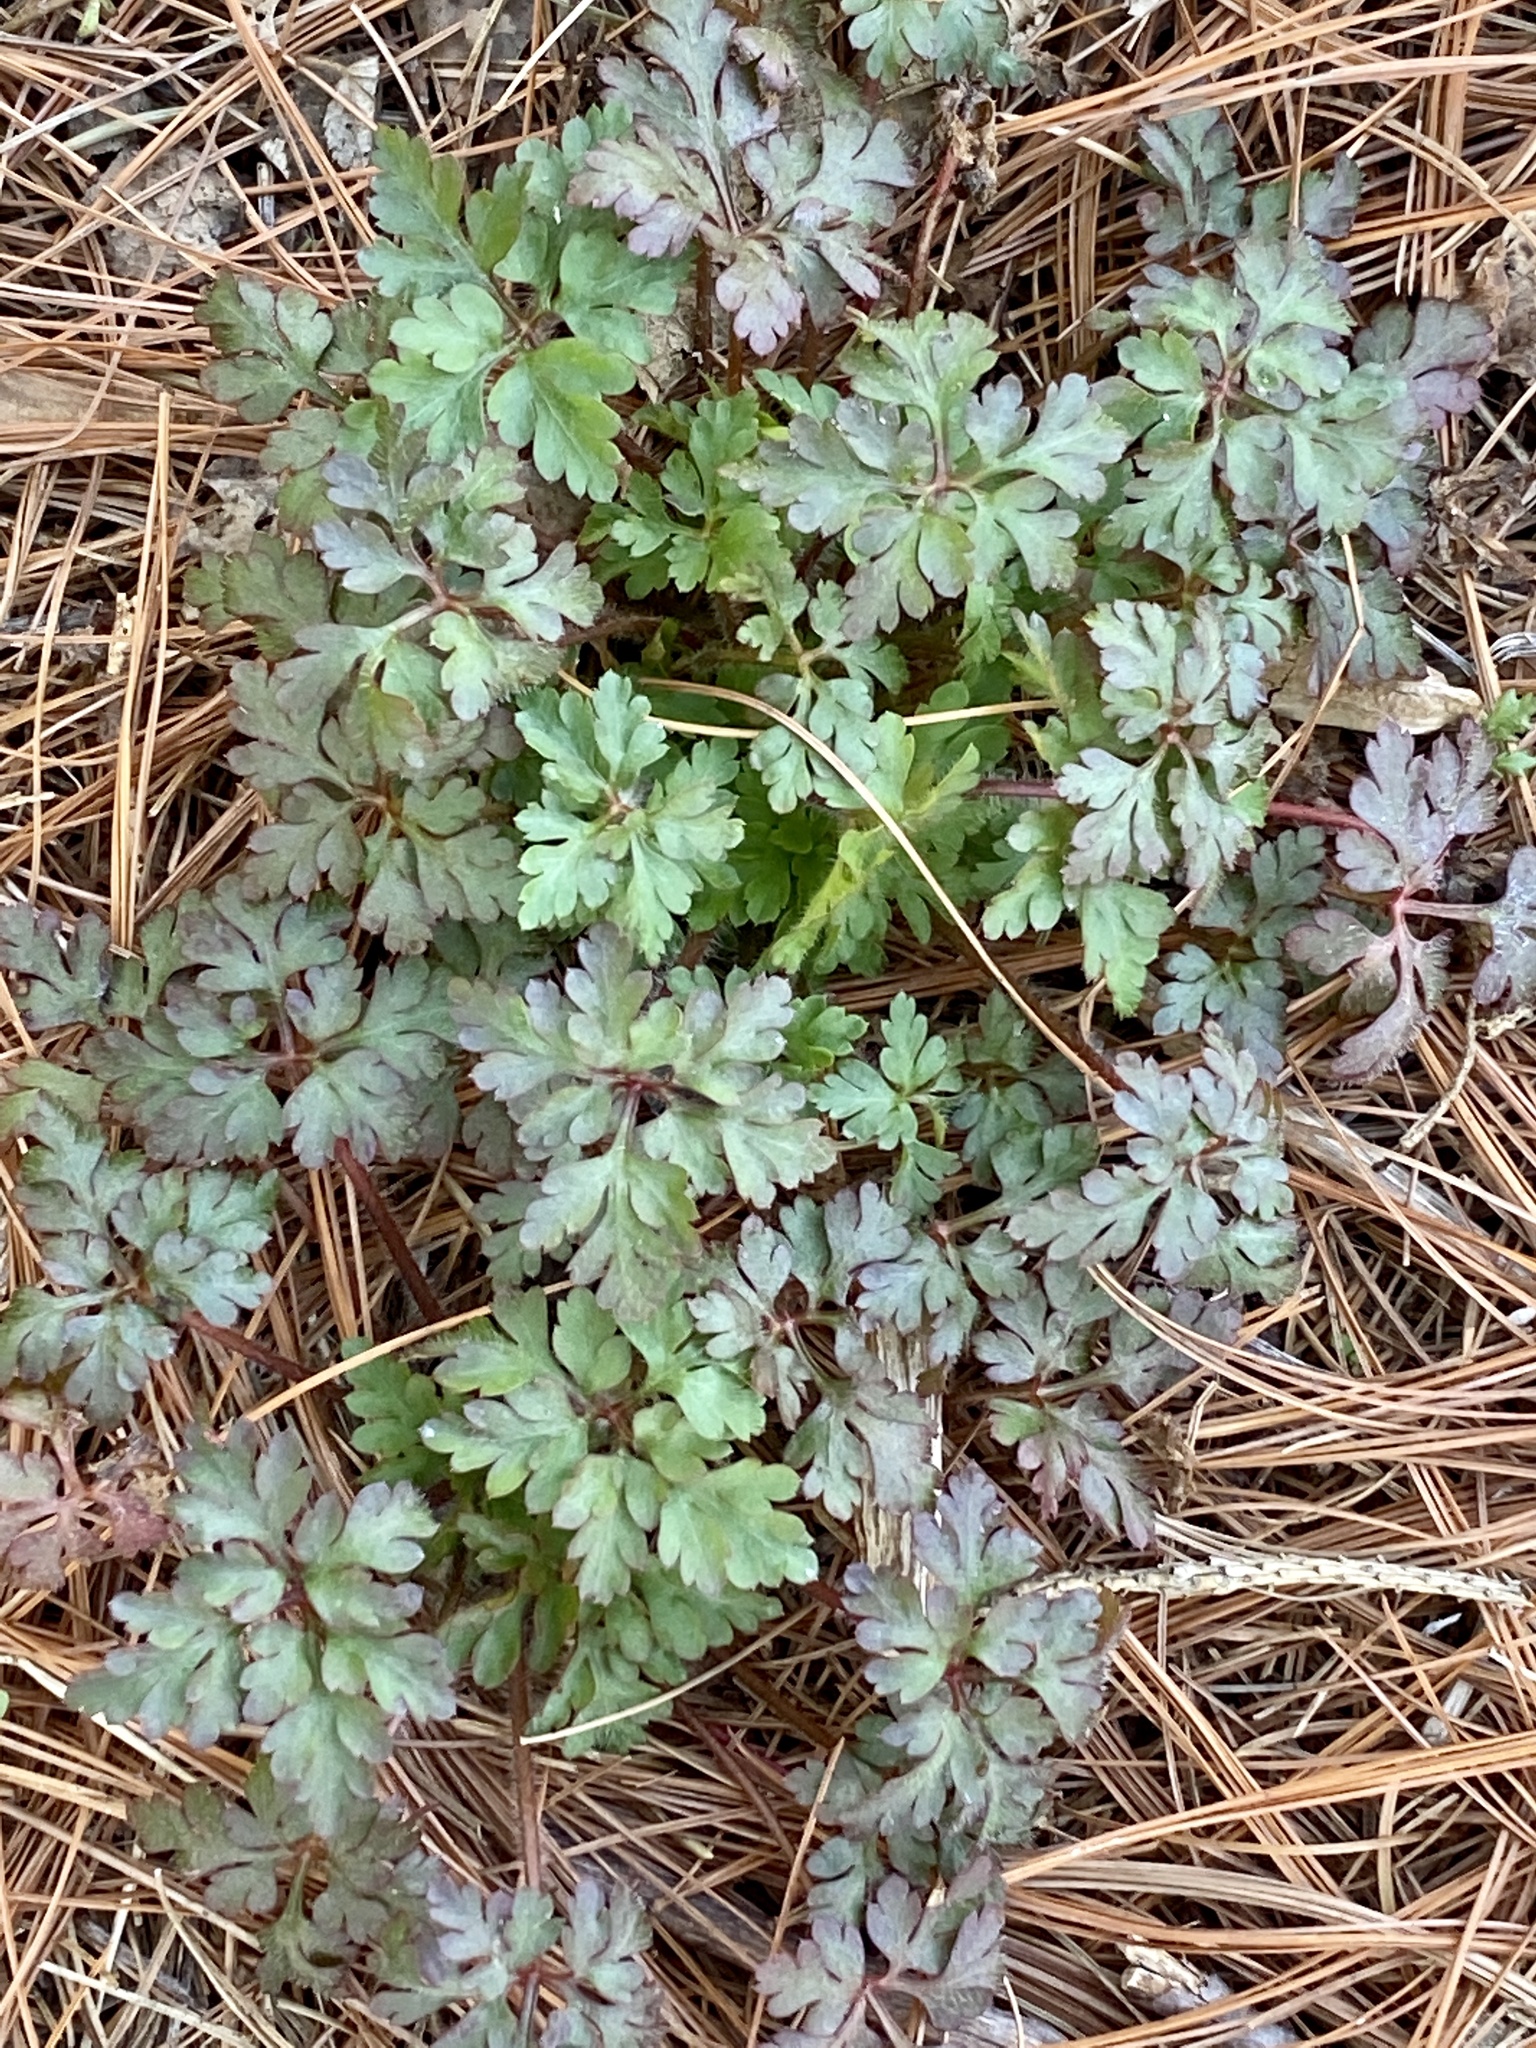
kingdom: Plantae
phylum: Tracheophyta
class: Magnoliopsida
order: Geraniales
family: Geraniaceae
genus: Geranium
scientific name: Geranium robertianum
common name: Herb-robert
